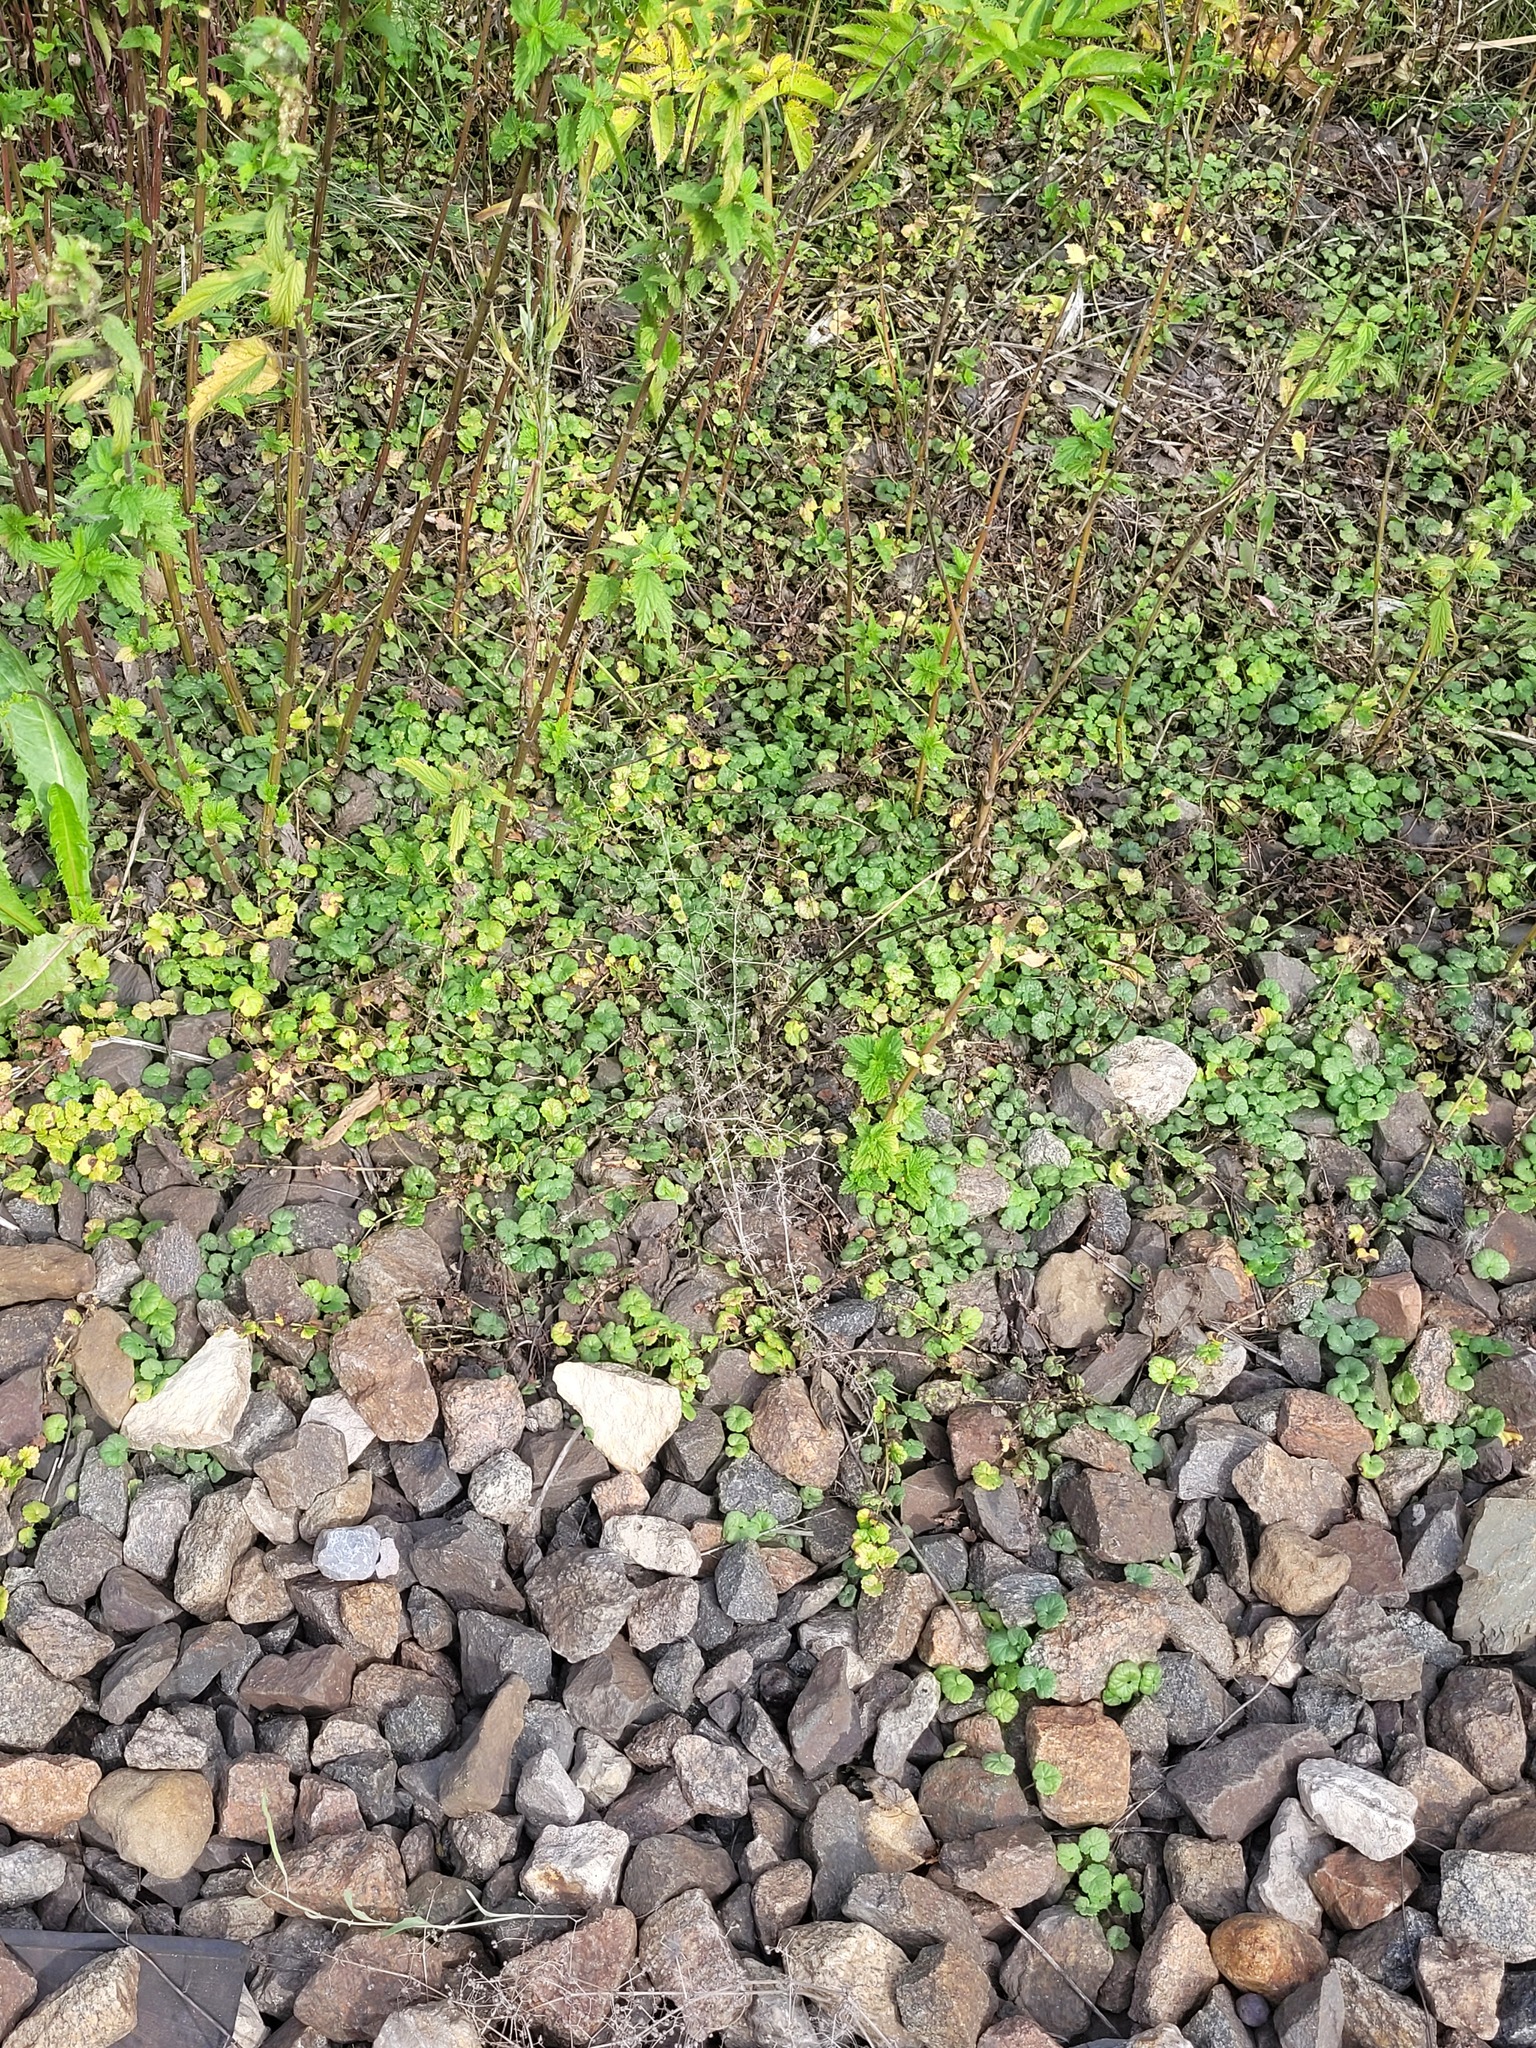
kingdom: Plantae
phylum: Tracheophyta
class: Magnoliopsida
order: Lamiales
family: Lamiaceae
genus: Glechoma
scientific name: Glechoma hederacea
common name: Ground ivy
